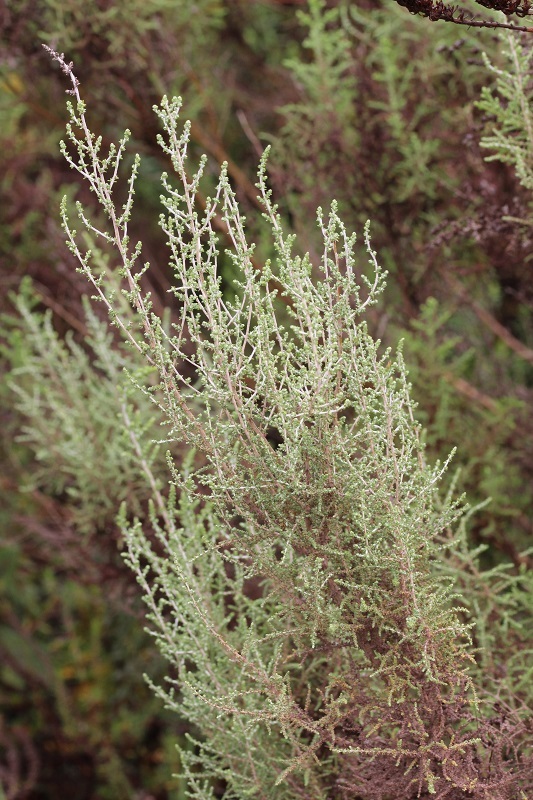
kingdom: Plantae
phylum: Tracheophyta
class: Magnoliopsida
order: Asterales
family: Asteraceae
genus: Seriphium
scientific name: Seriphium plumosum
